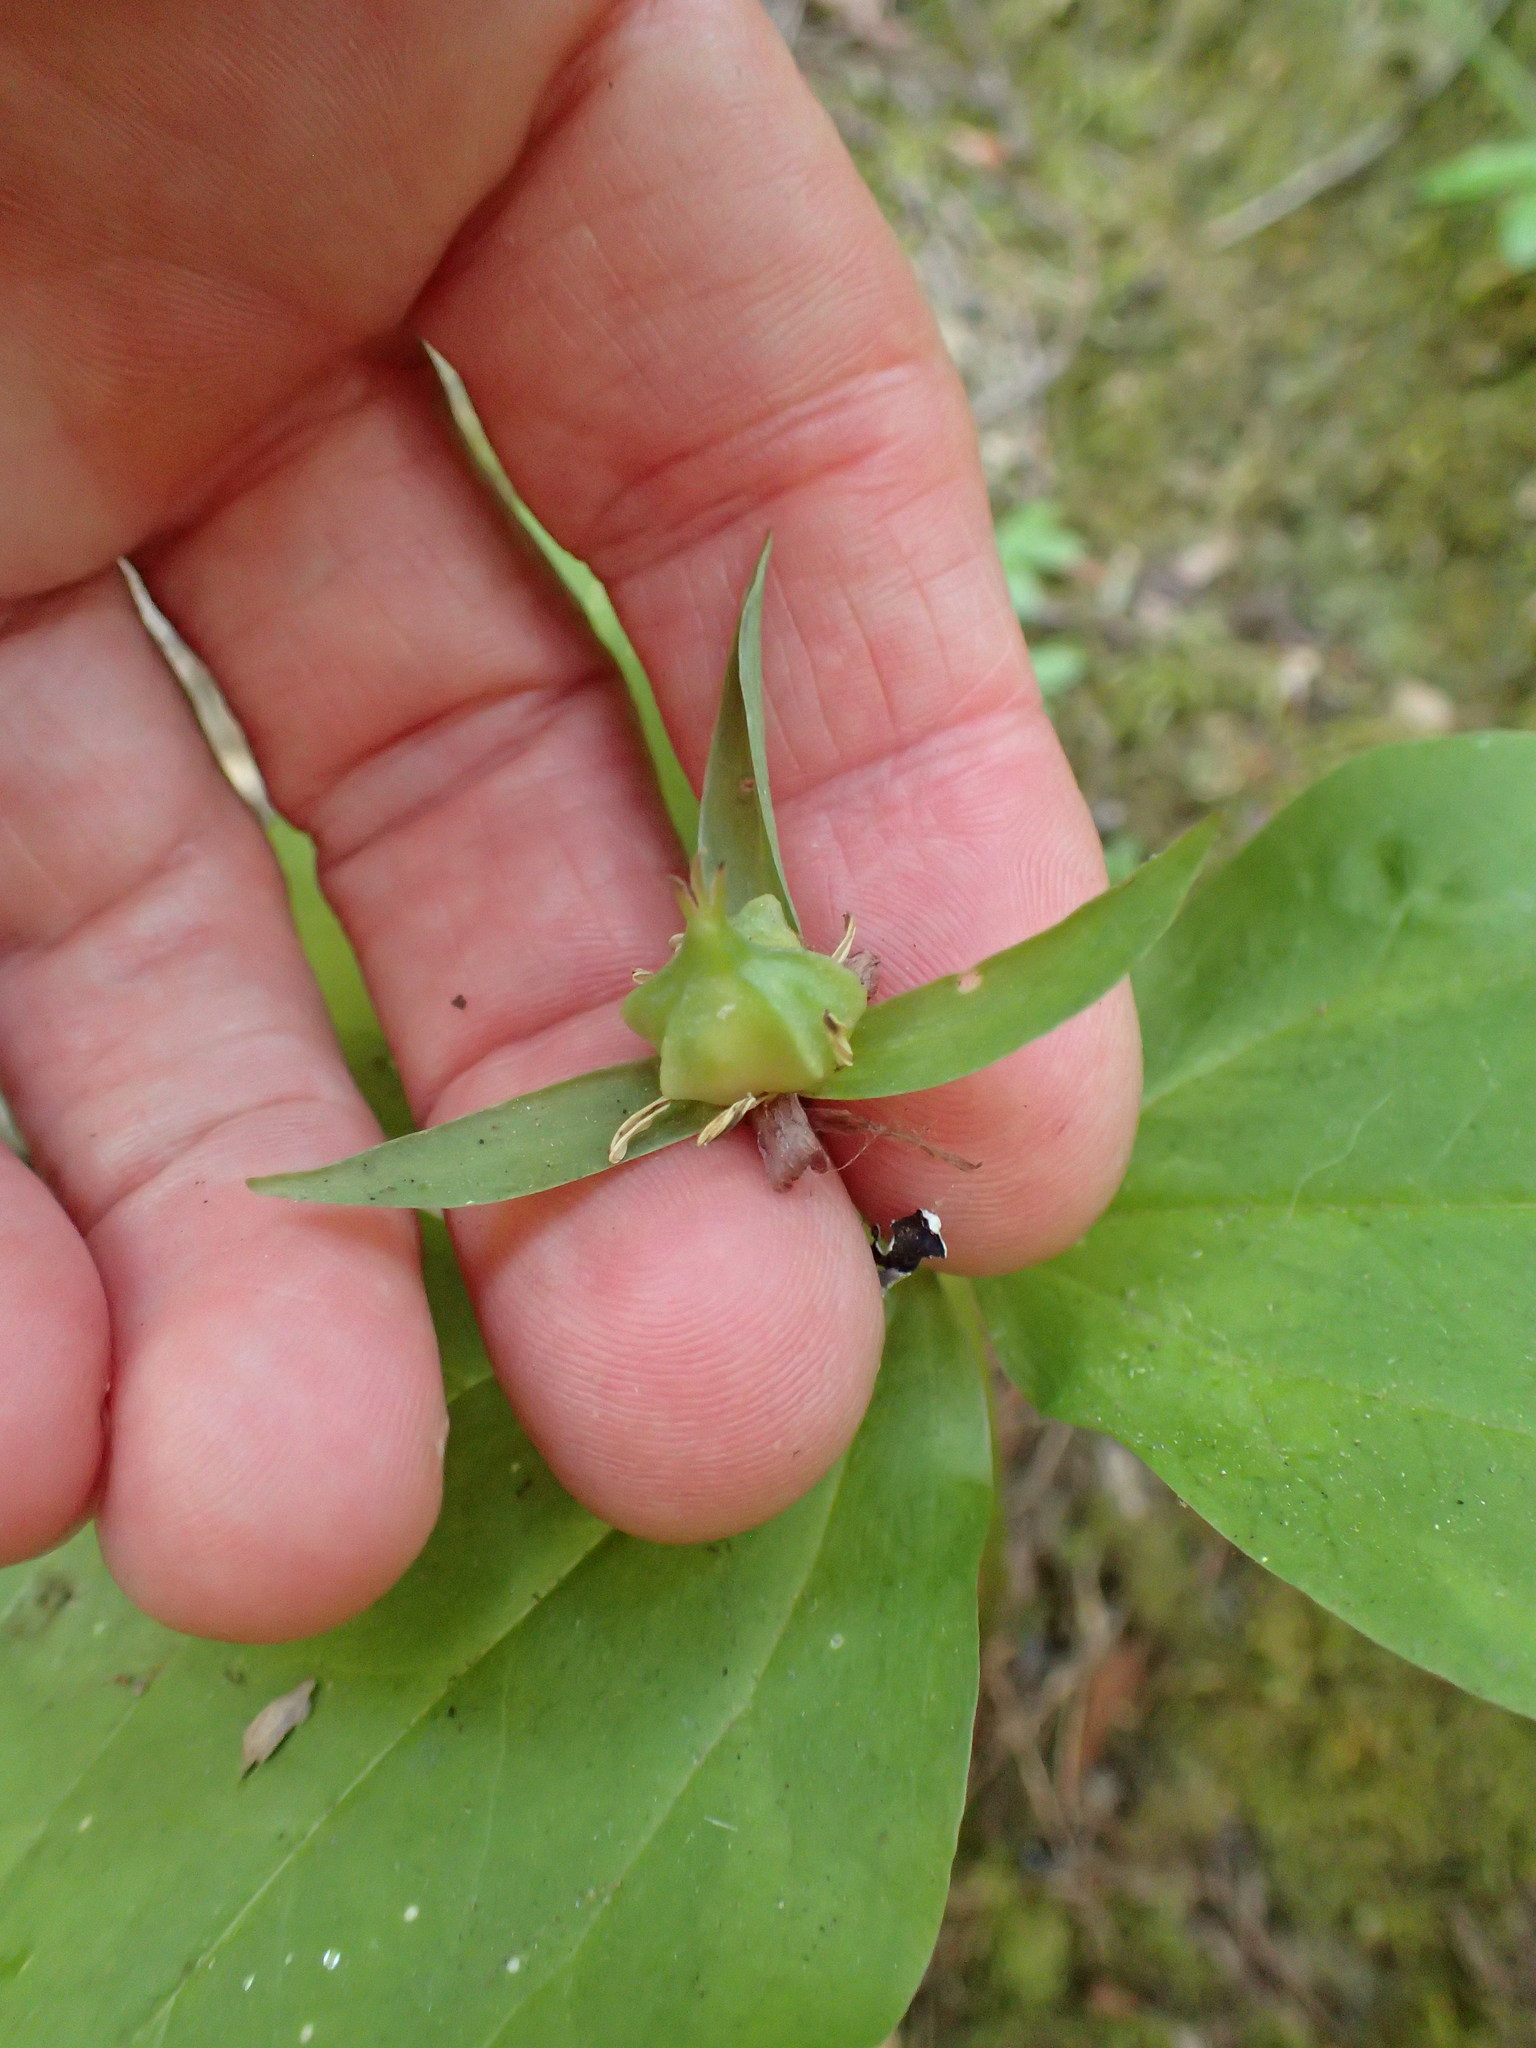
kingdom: Plantae
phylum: Tracheophyta
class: Liliopsida
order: Liliales
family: Melanthiaceae
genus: Trillium
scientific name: Trillium ovatum
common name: Pacific trillium
